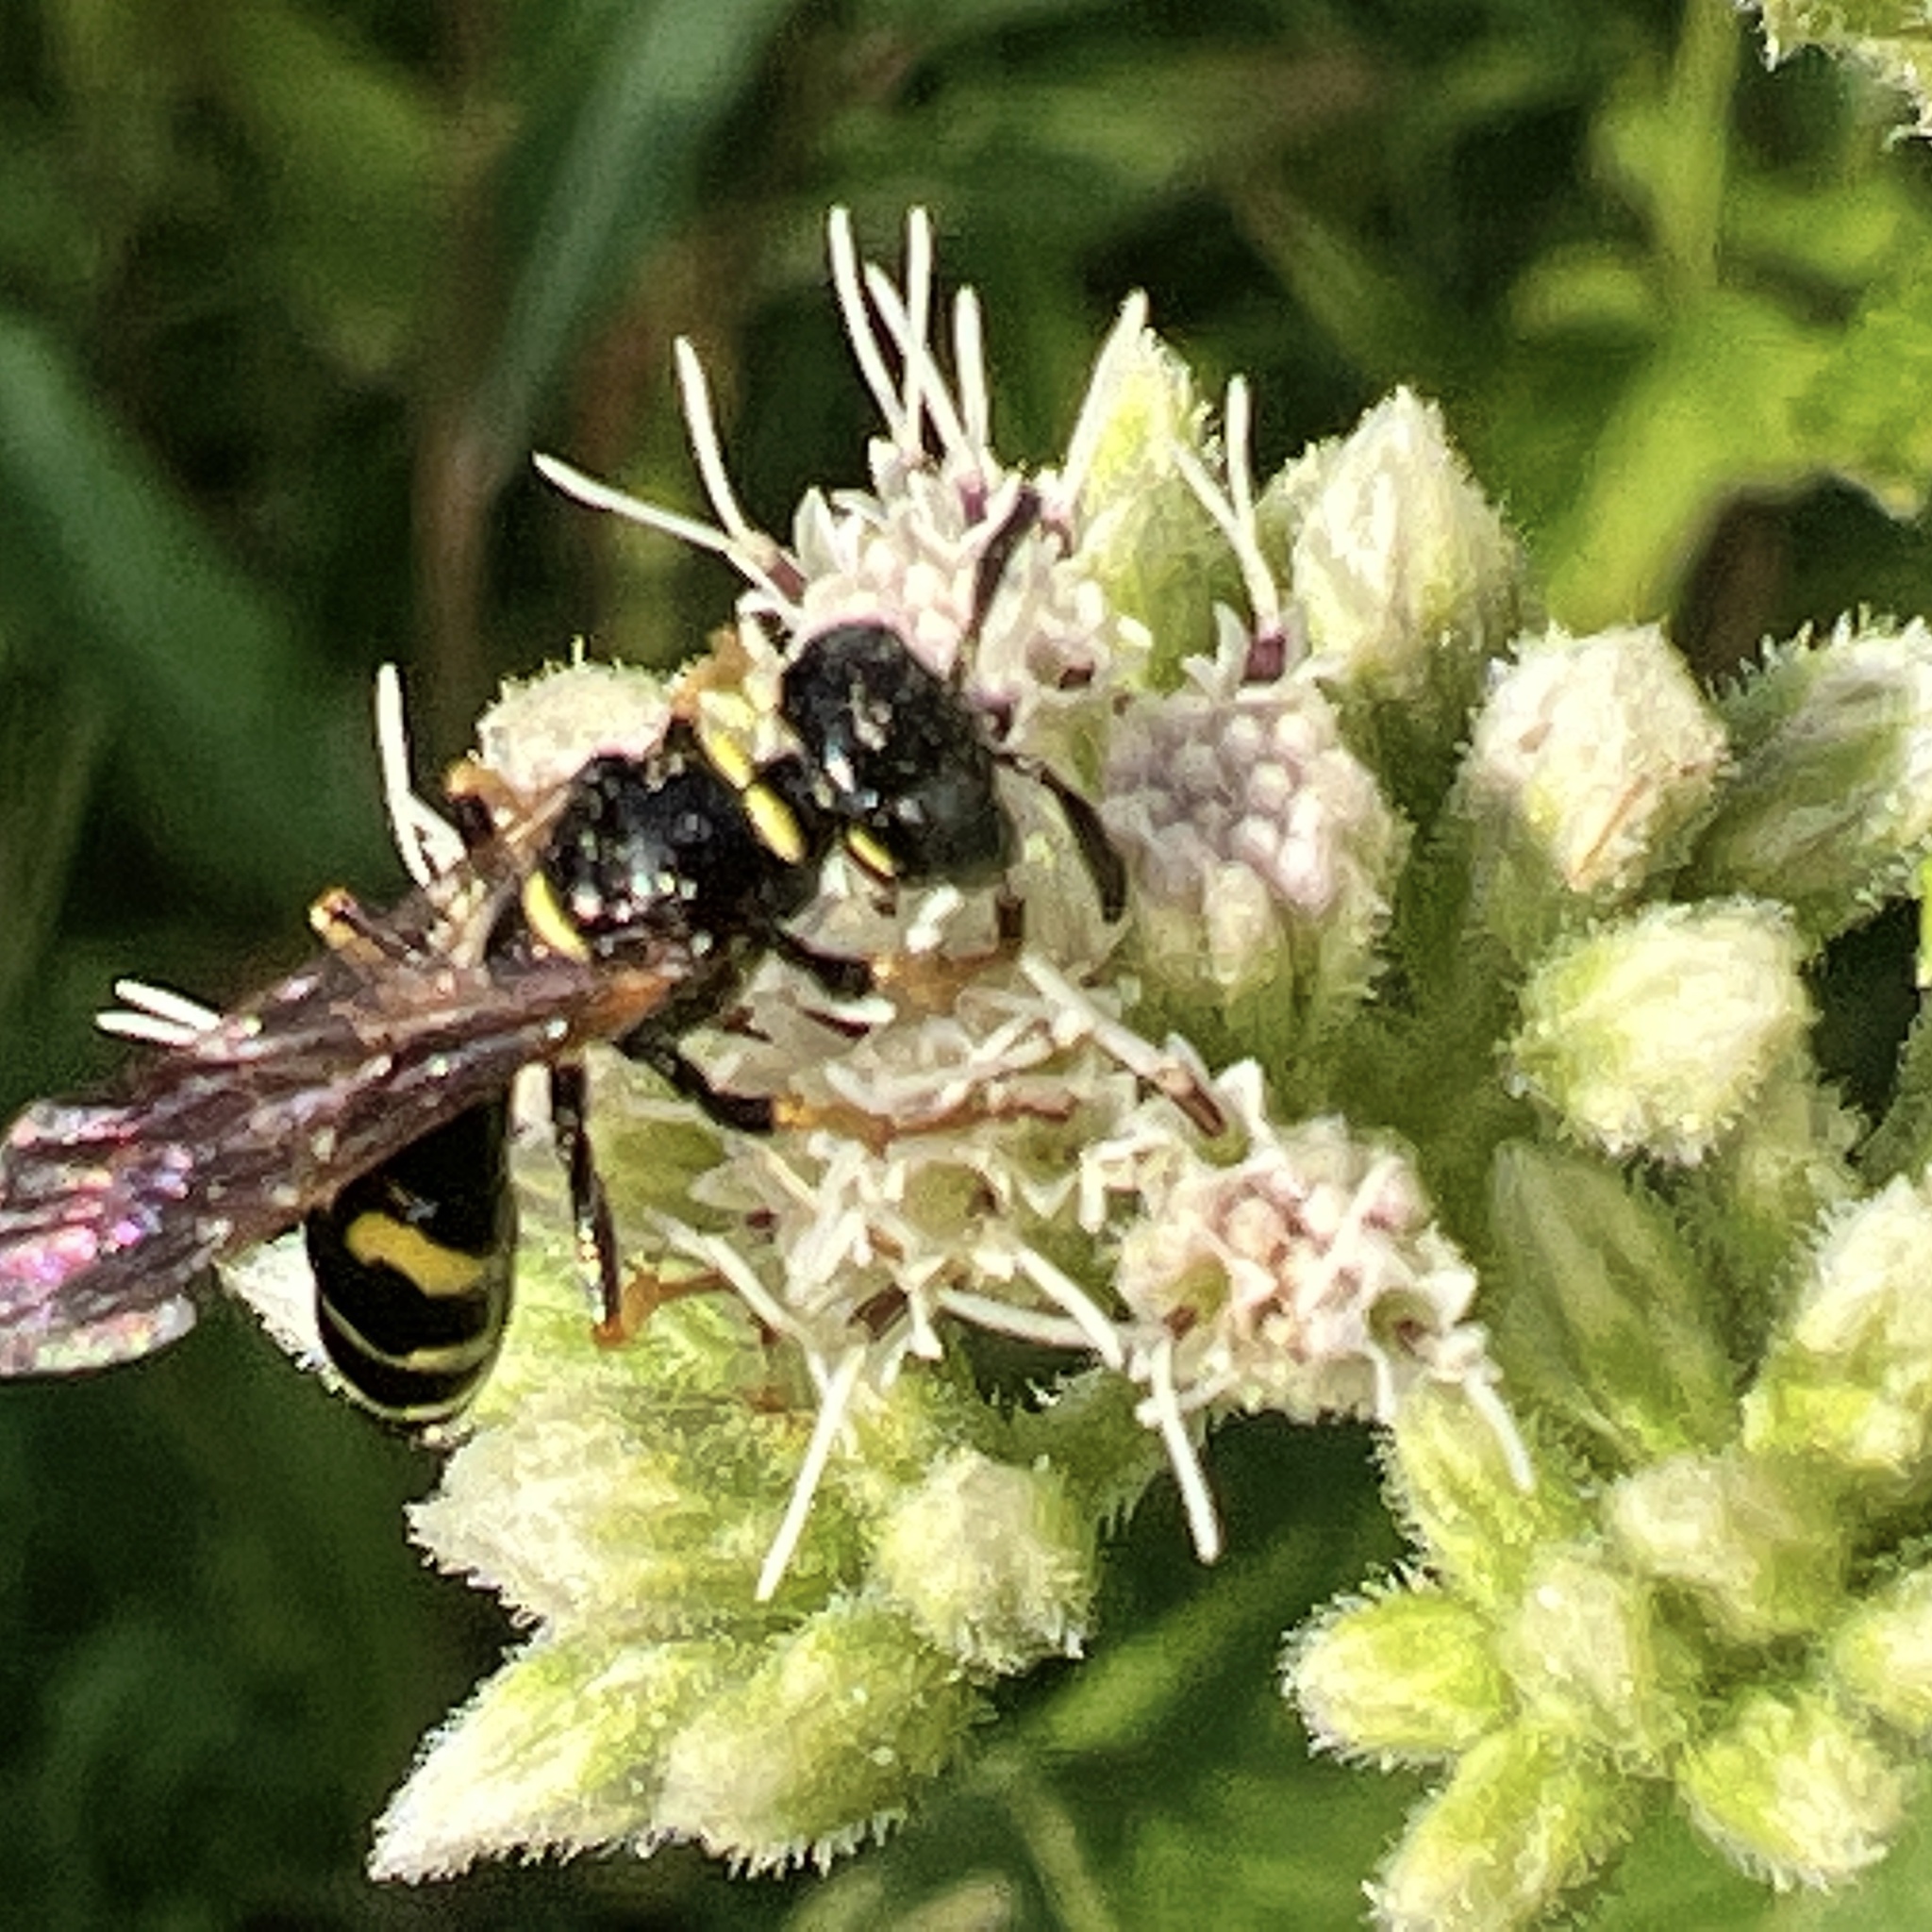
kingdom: Animalia
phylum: Arthropoda
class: Insecta
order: Hymenoptera
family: Crabronidae
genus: Philanthus
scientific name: Philanthus bilunatus
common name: Two moons beewolf
